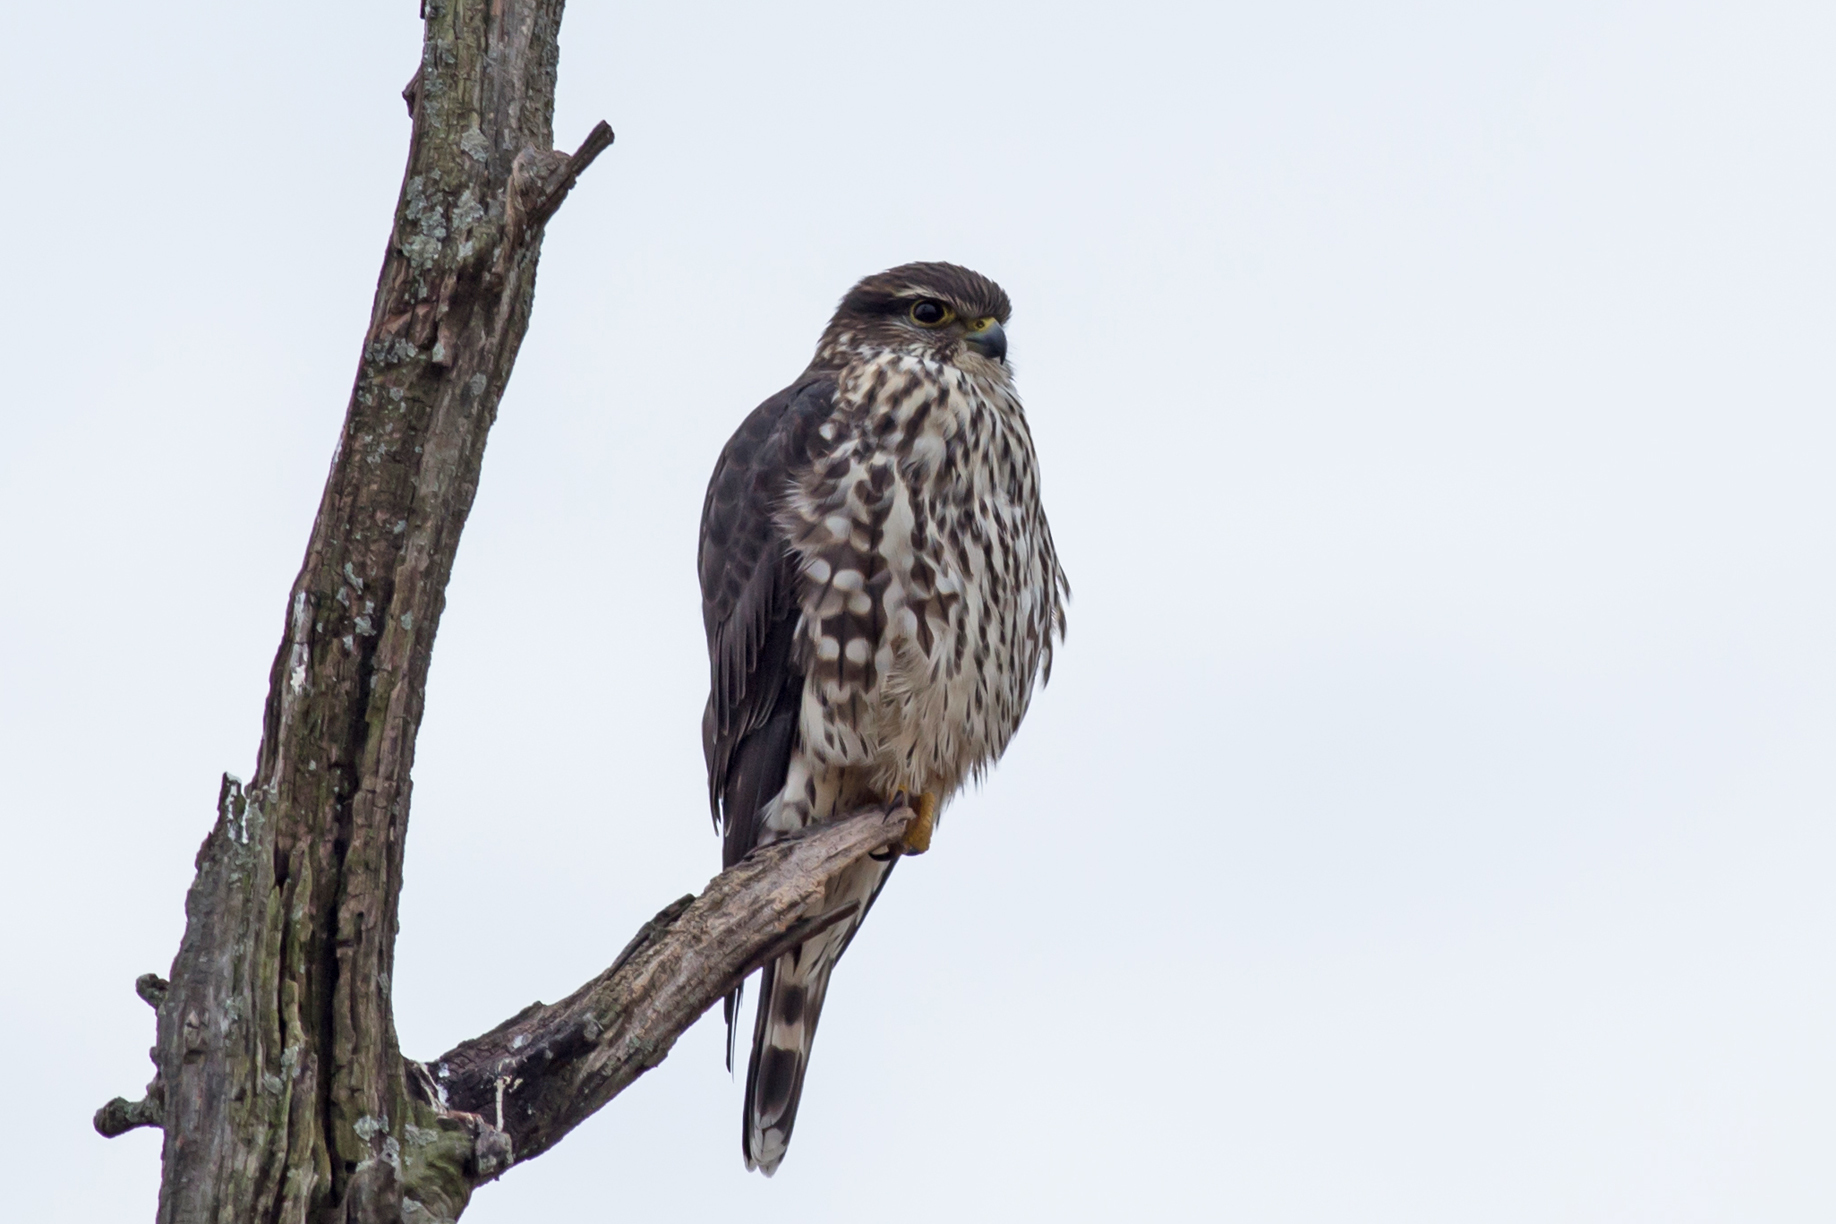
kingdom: Animalia
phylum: Chordata
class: Aves
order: Falconiformes
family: Falconidae
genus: Falco
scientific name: Falco columbarius
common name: Merlin
